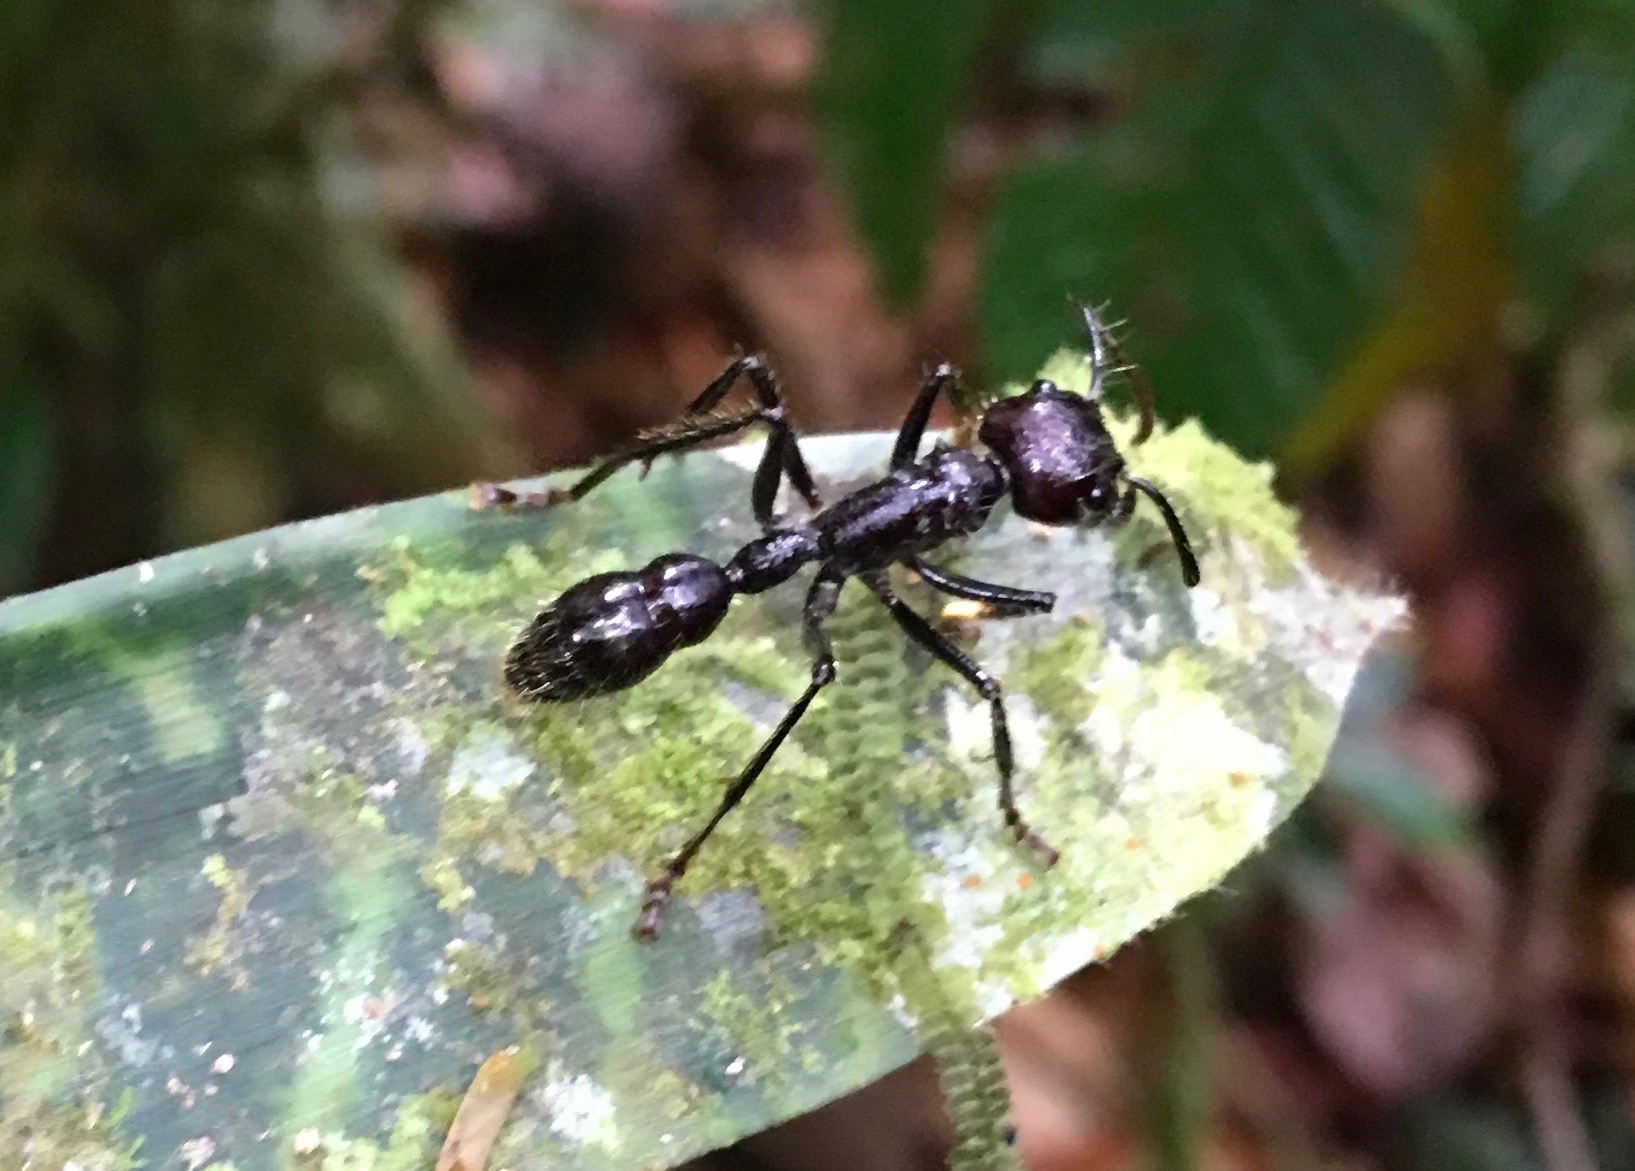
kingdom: Animalia
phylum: Arthropoda
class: Insecta
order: Hymenoptera
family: Formicidae
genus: Paraponera
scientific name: Paraponera clavata
